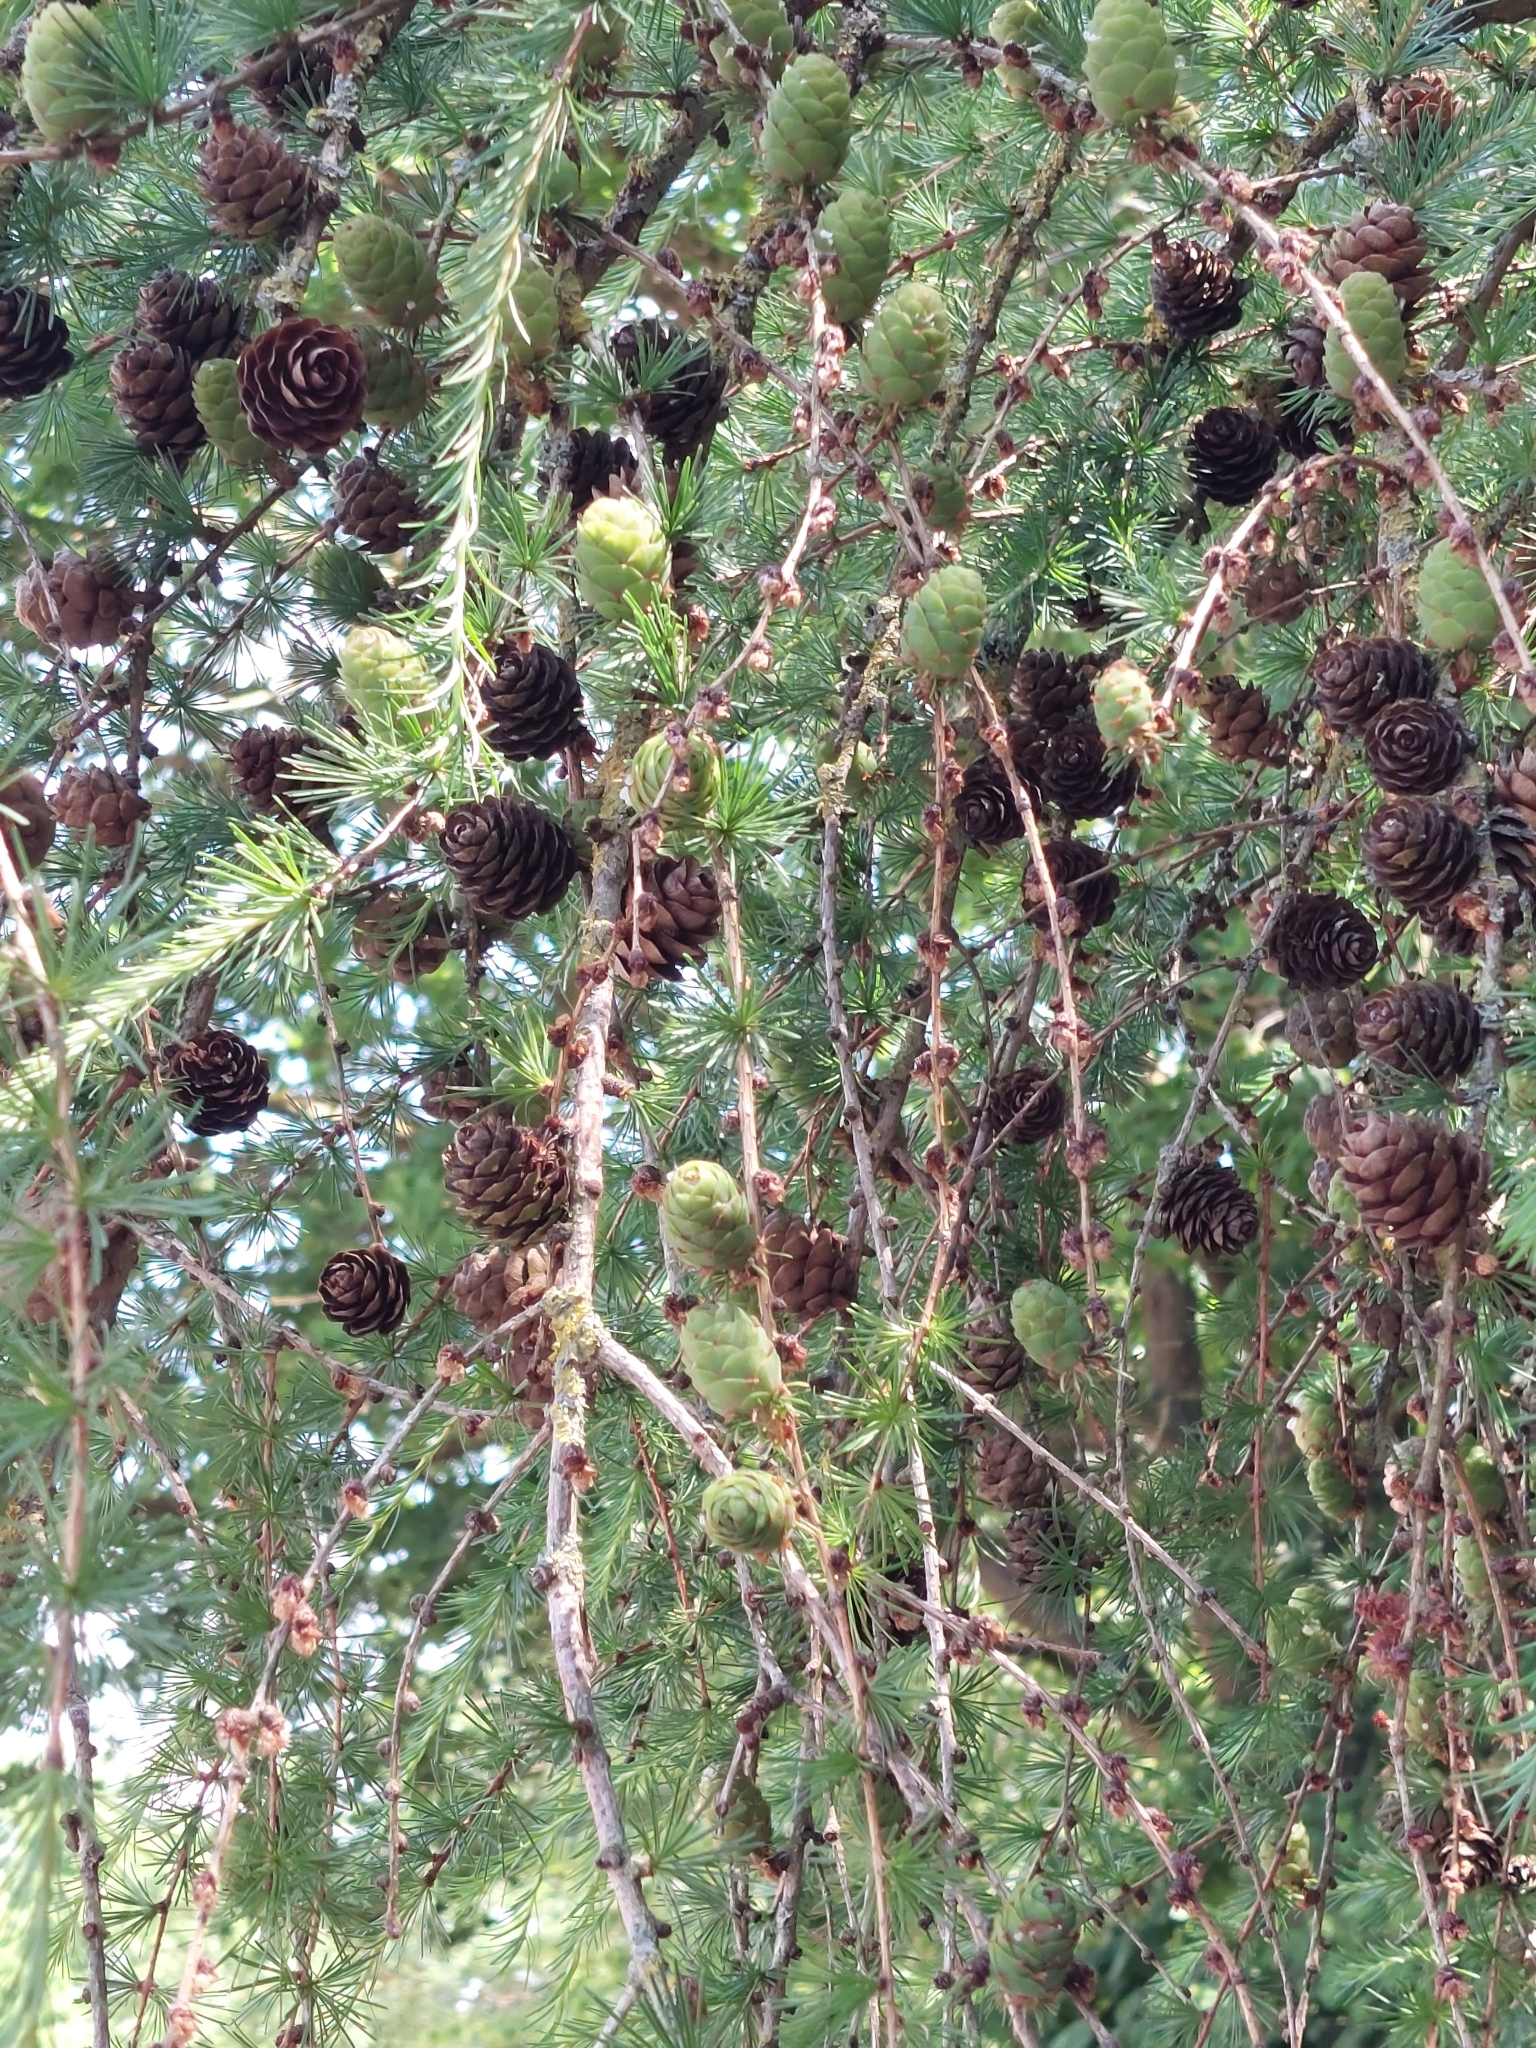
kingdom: Plantae
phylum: Tracheophyta
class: Pinopsida
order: Pinales
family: Pinaceae
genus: Larix
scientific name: Larix decidua
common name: European larch
